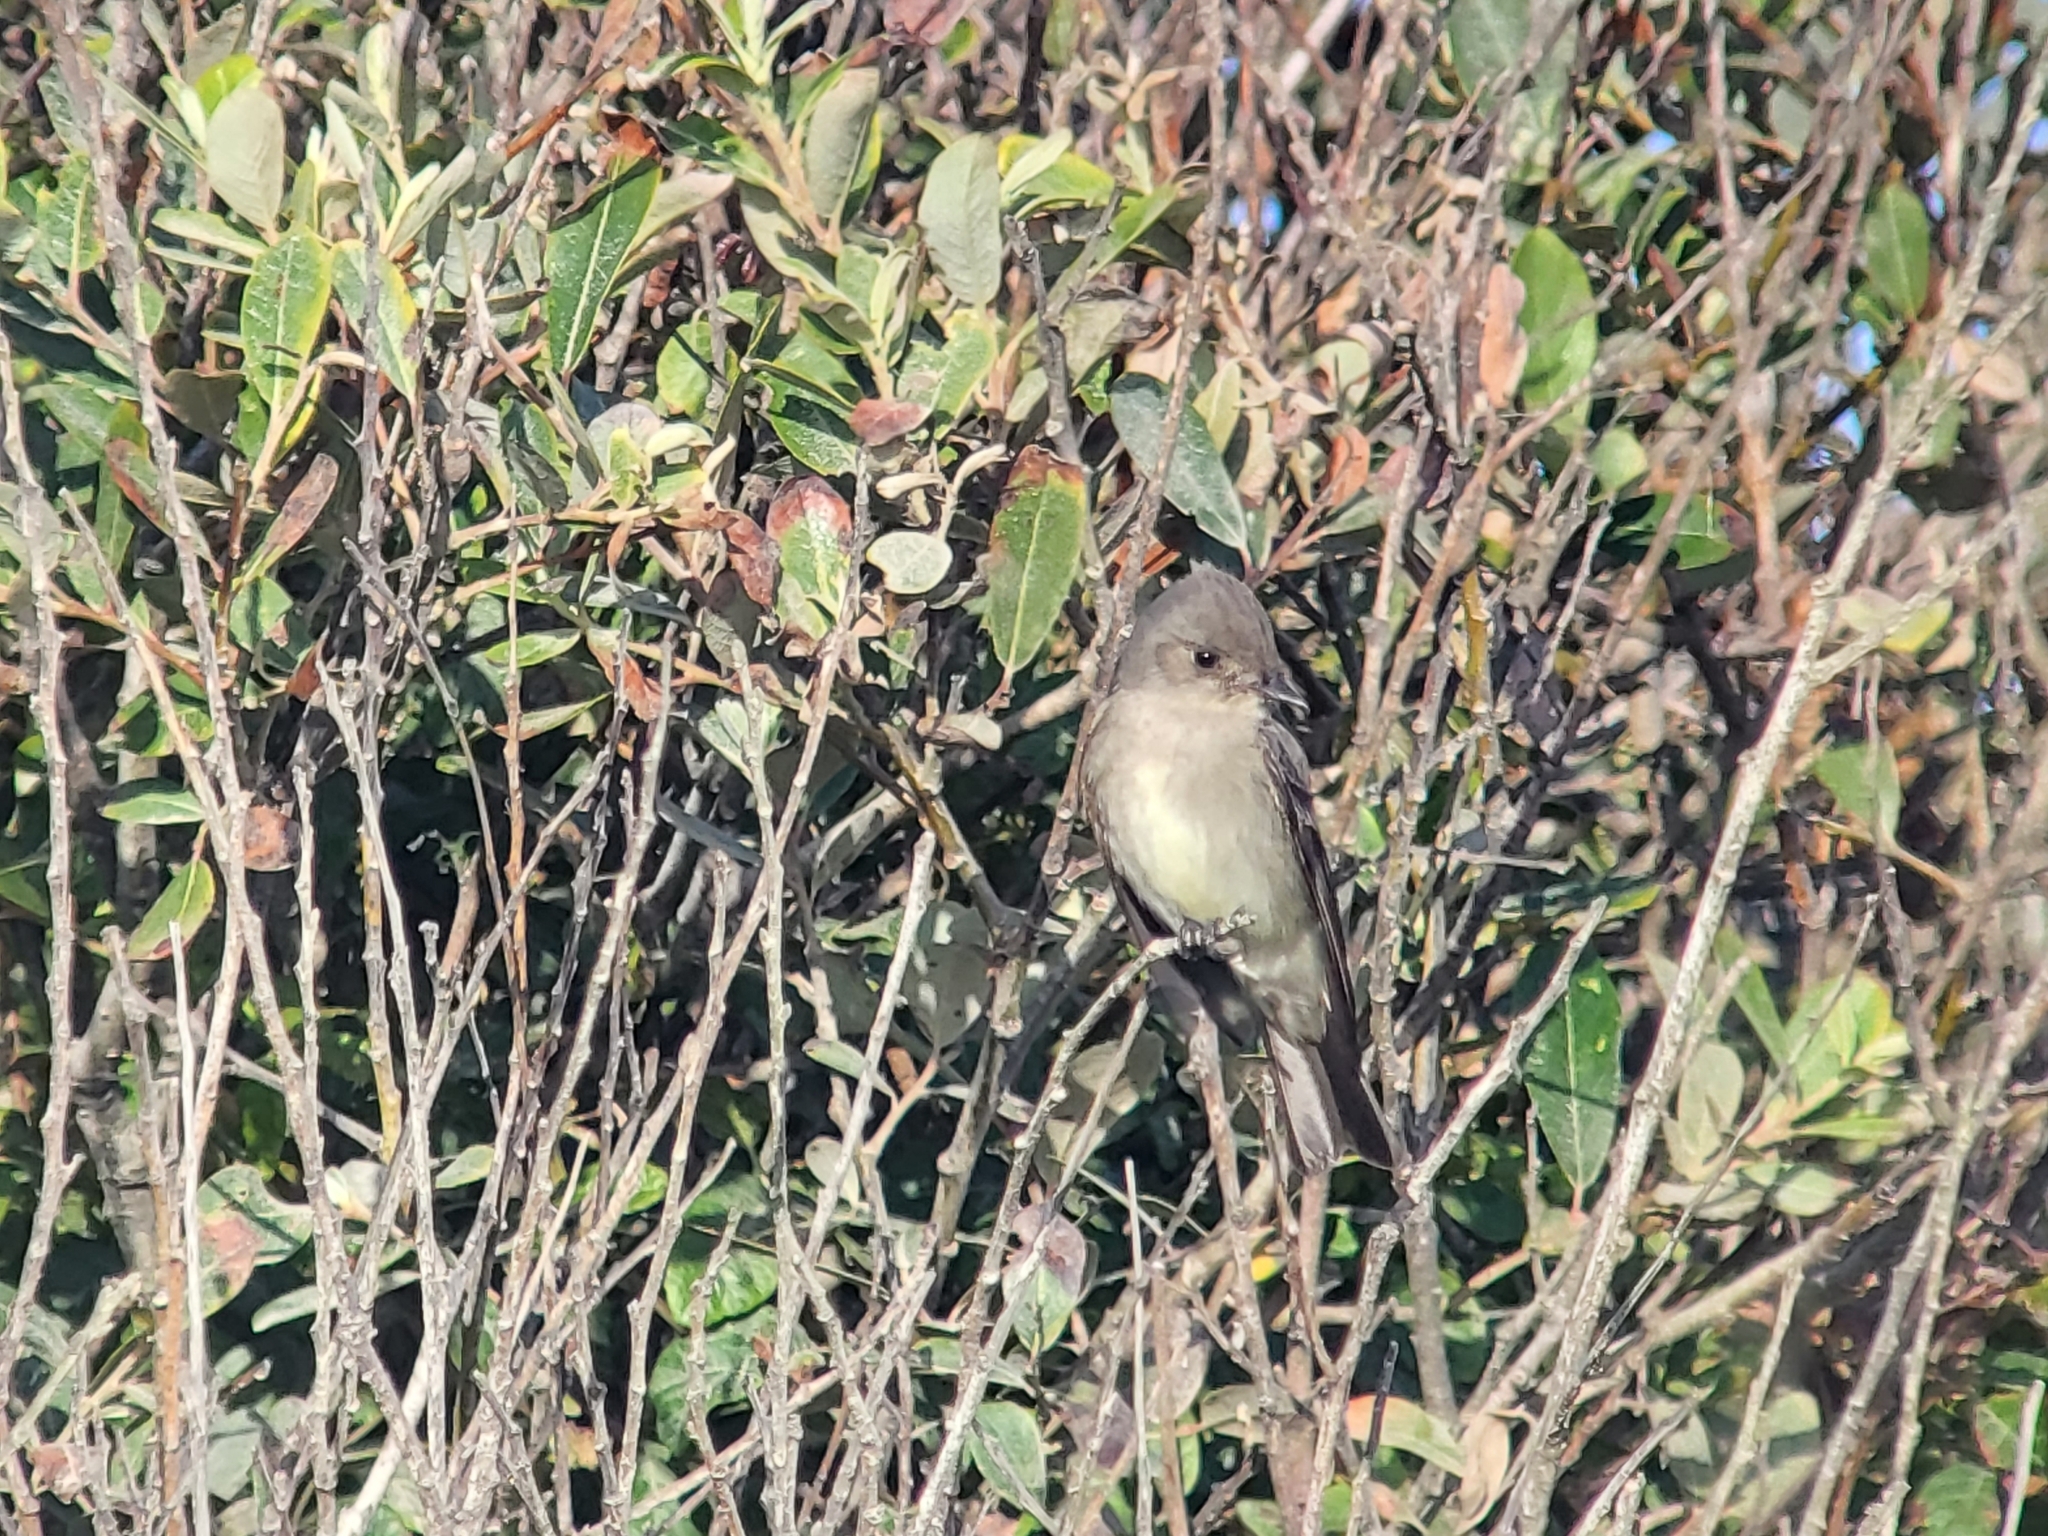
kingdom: Animalia
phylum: Chordata
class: Aves
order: Passeriformes
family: Tyrannidae
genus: Contopus
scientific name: Contopus sordidulus
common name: Western wood-pewee
